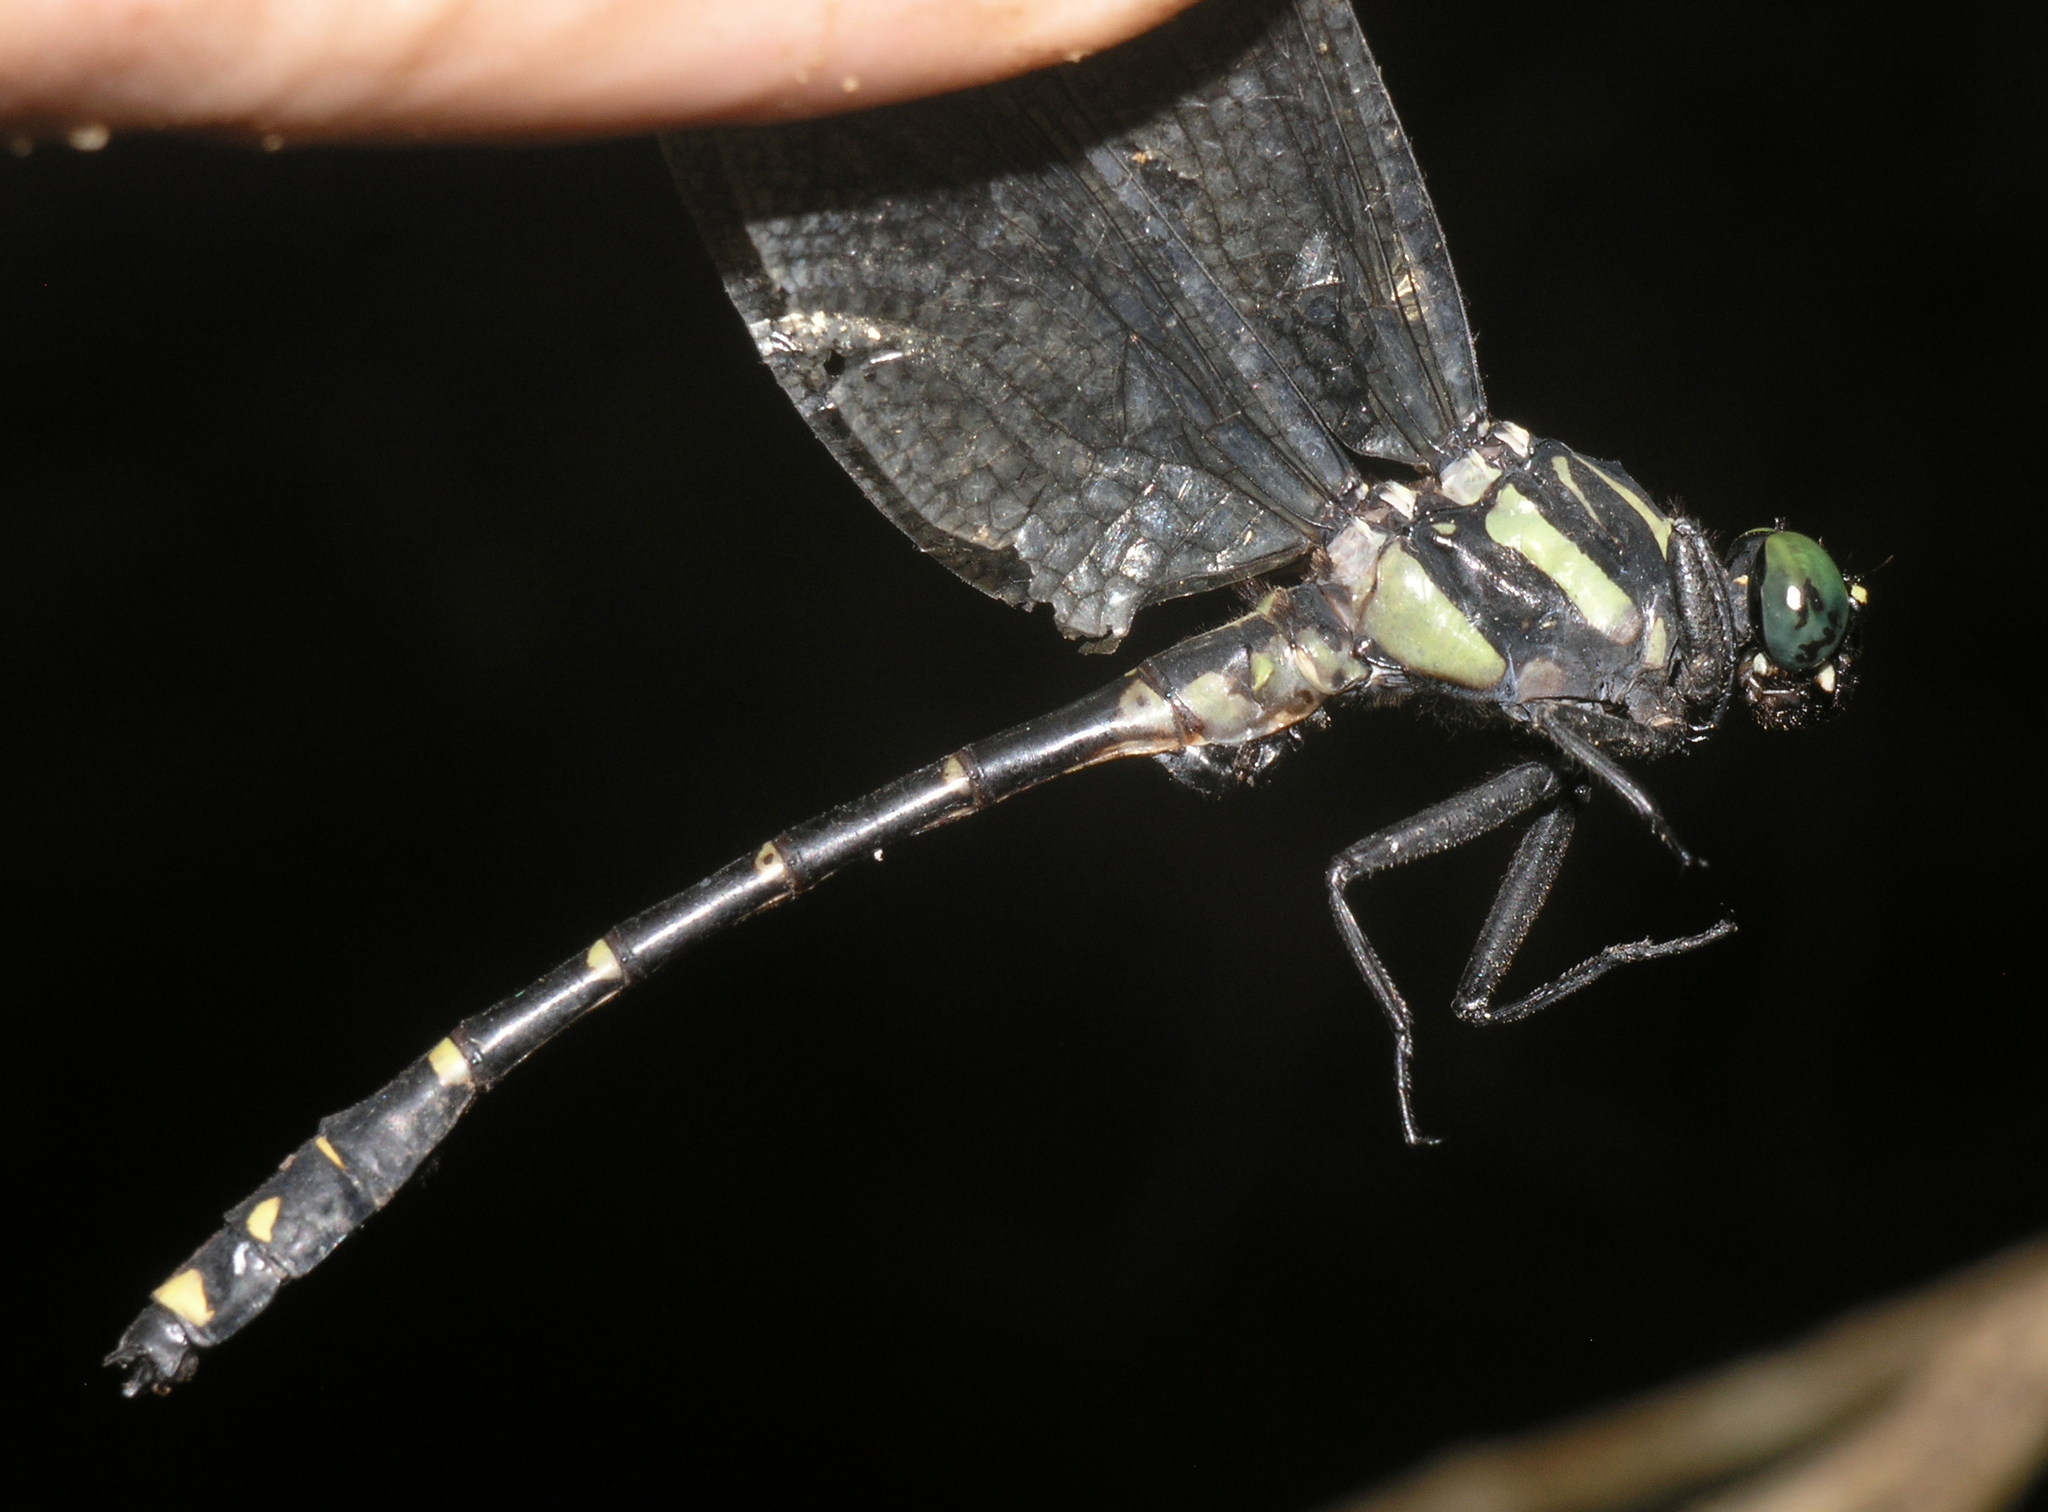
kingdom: Animalia
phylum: Arthropoda
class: Insecta
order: Odonata
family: Gomphidae
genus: Asiagomphus
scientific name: Asiagomphus reinhardti
